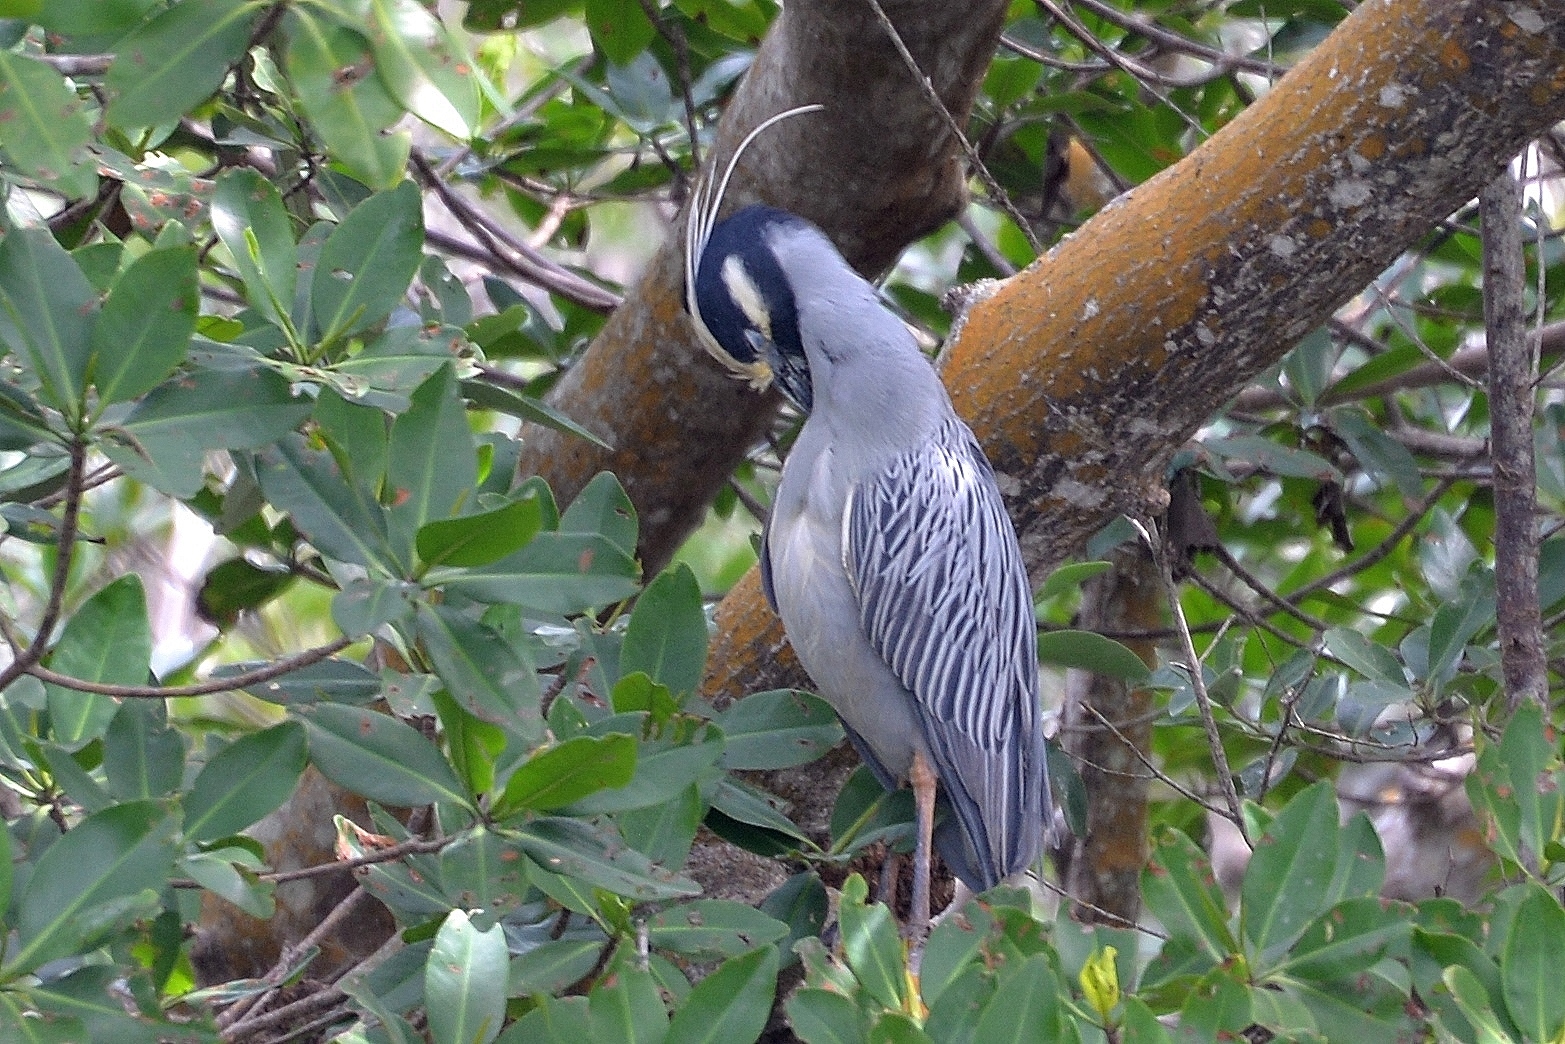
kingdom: Animalia
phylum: Chordata
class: Aves
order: Pelecaniformes
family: Ardeidae
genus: Nyctanassa
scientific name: Nyctanassa violacea
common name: Yellow-crowned night heron
